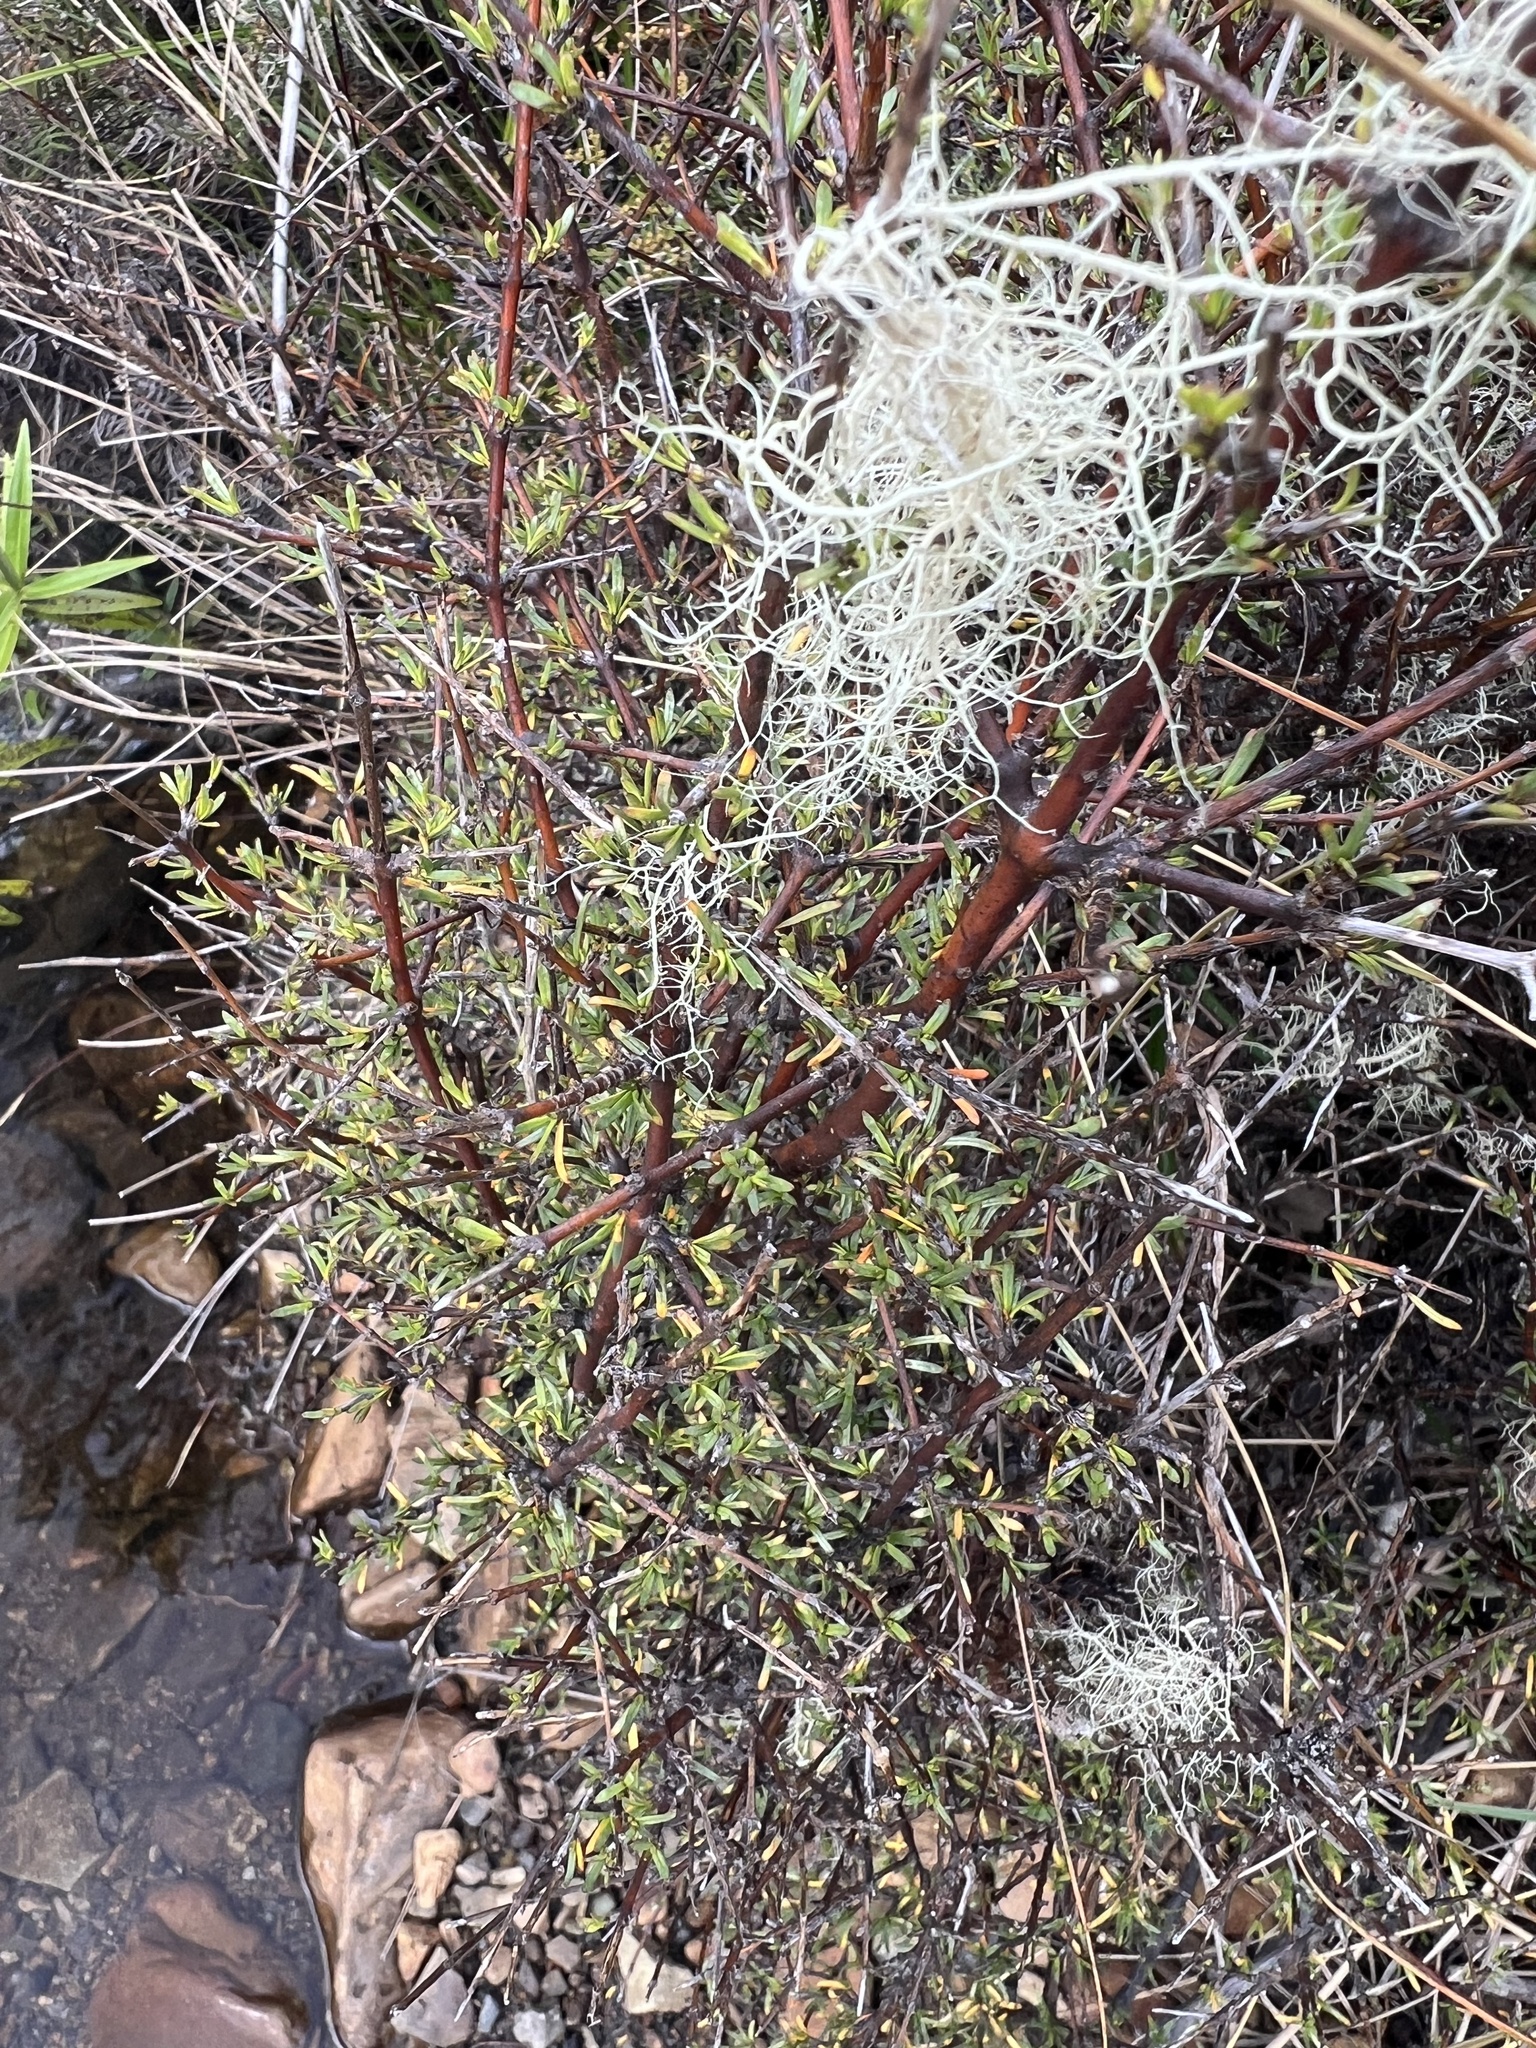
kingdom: Plantae
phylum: Tracheophyta
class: Magnoliopsida
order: Gentianales
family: Rubiaceae
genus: Coprosma
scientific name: Coprosma rugosa
